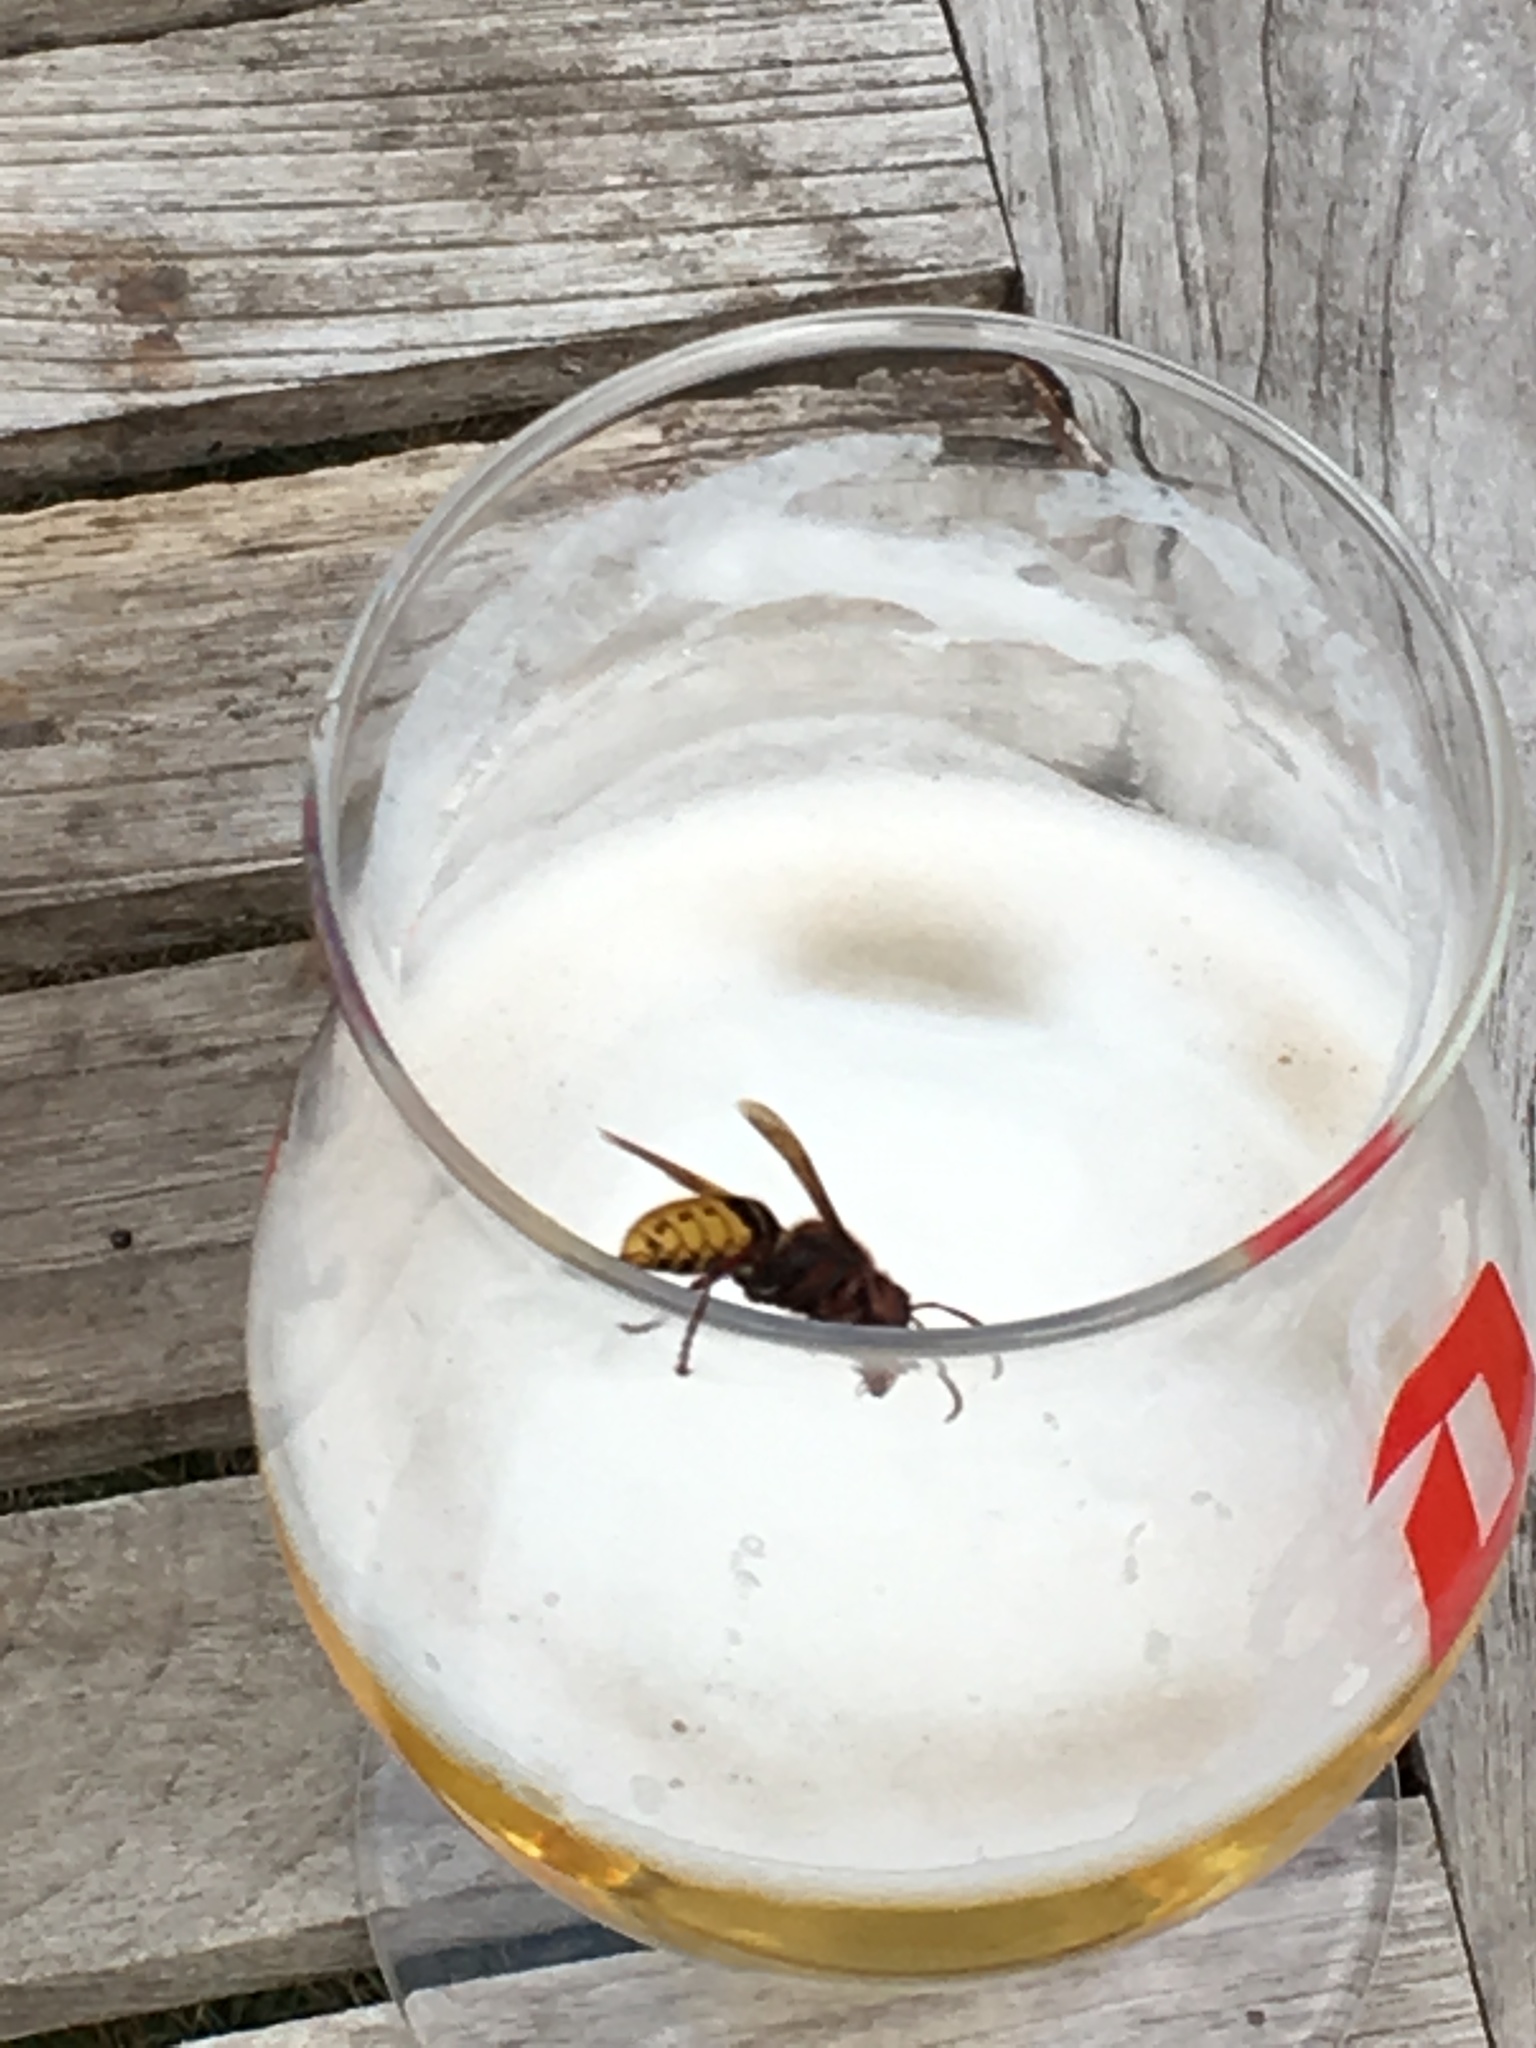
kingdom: Animalia
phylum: Arthropoda
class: Insecta
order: Hymenoptera
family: Vespidae
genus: Vespa
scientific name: Vespa crabro
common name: Hornet
